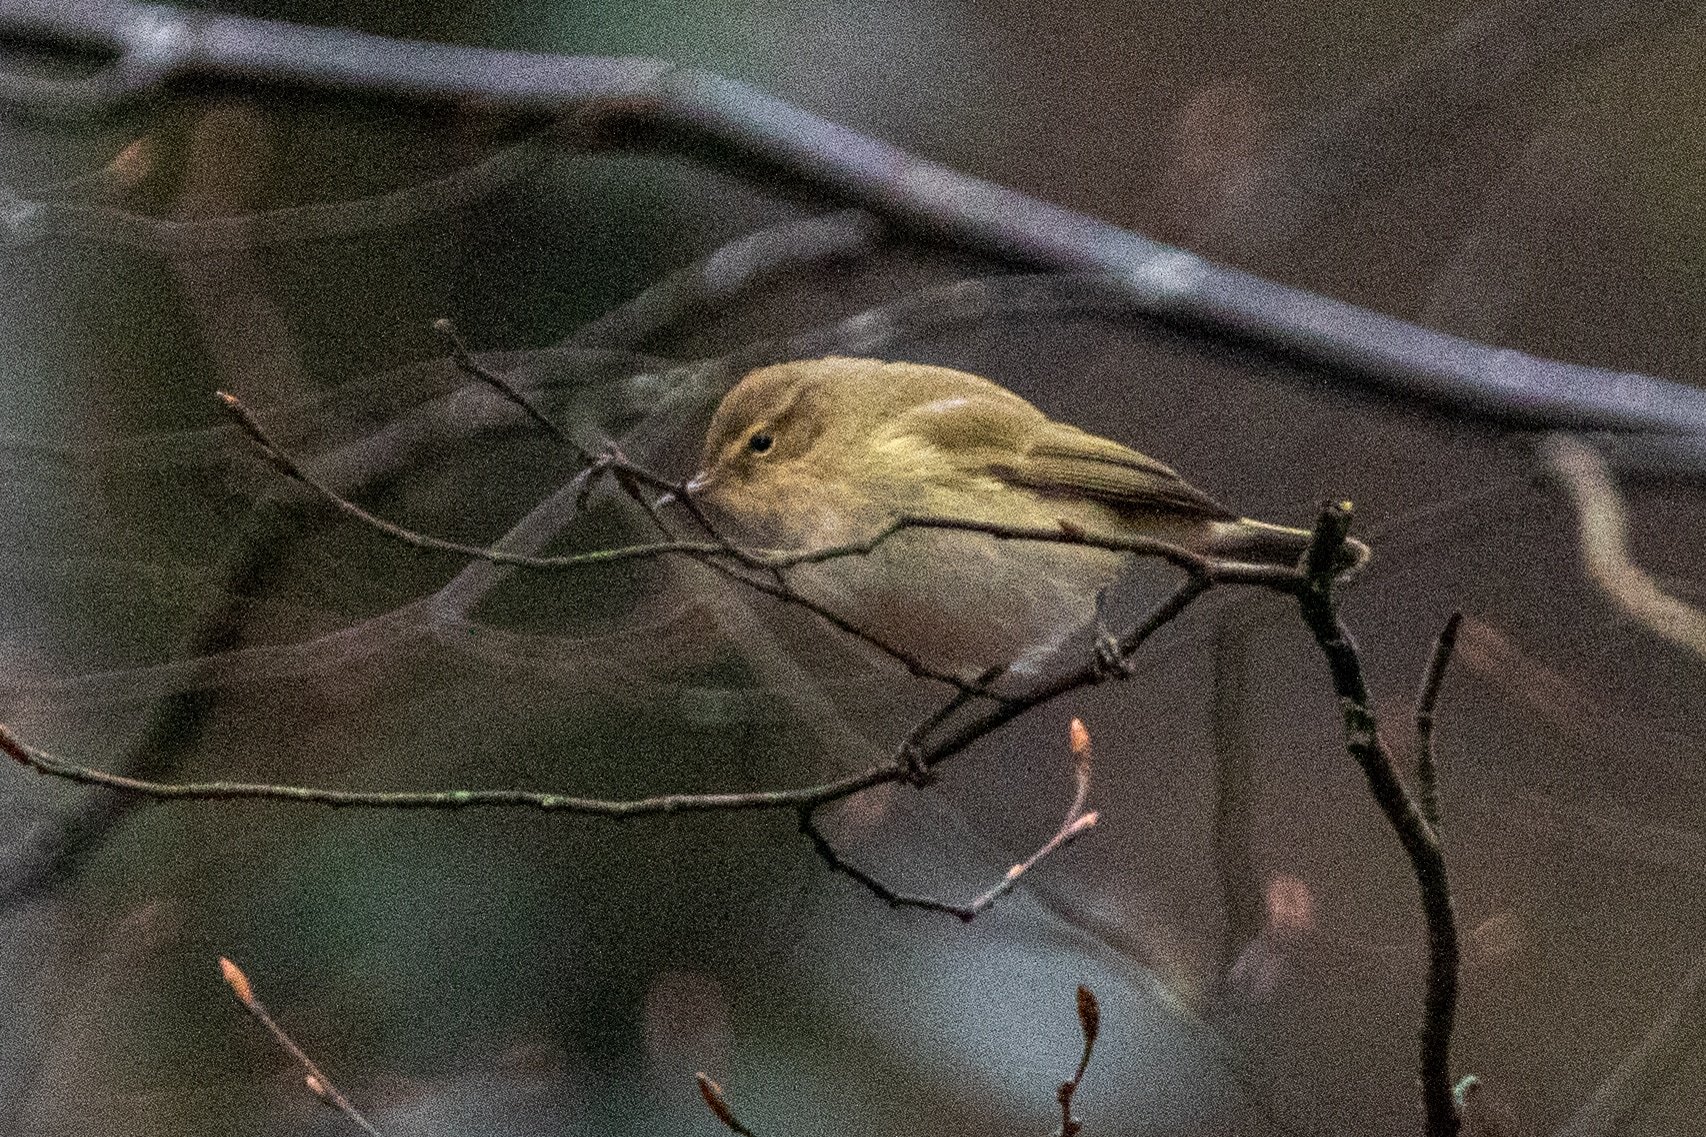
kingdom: Animalia
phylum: Chordata
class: Aves
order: Passeriformes
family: Phylloscopidae
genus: Phylloscopus
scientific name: Phylloscopus collybita
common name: Common chiffchaff
